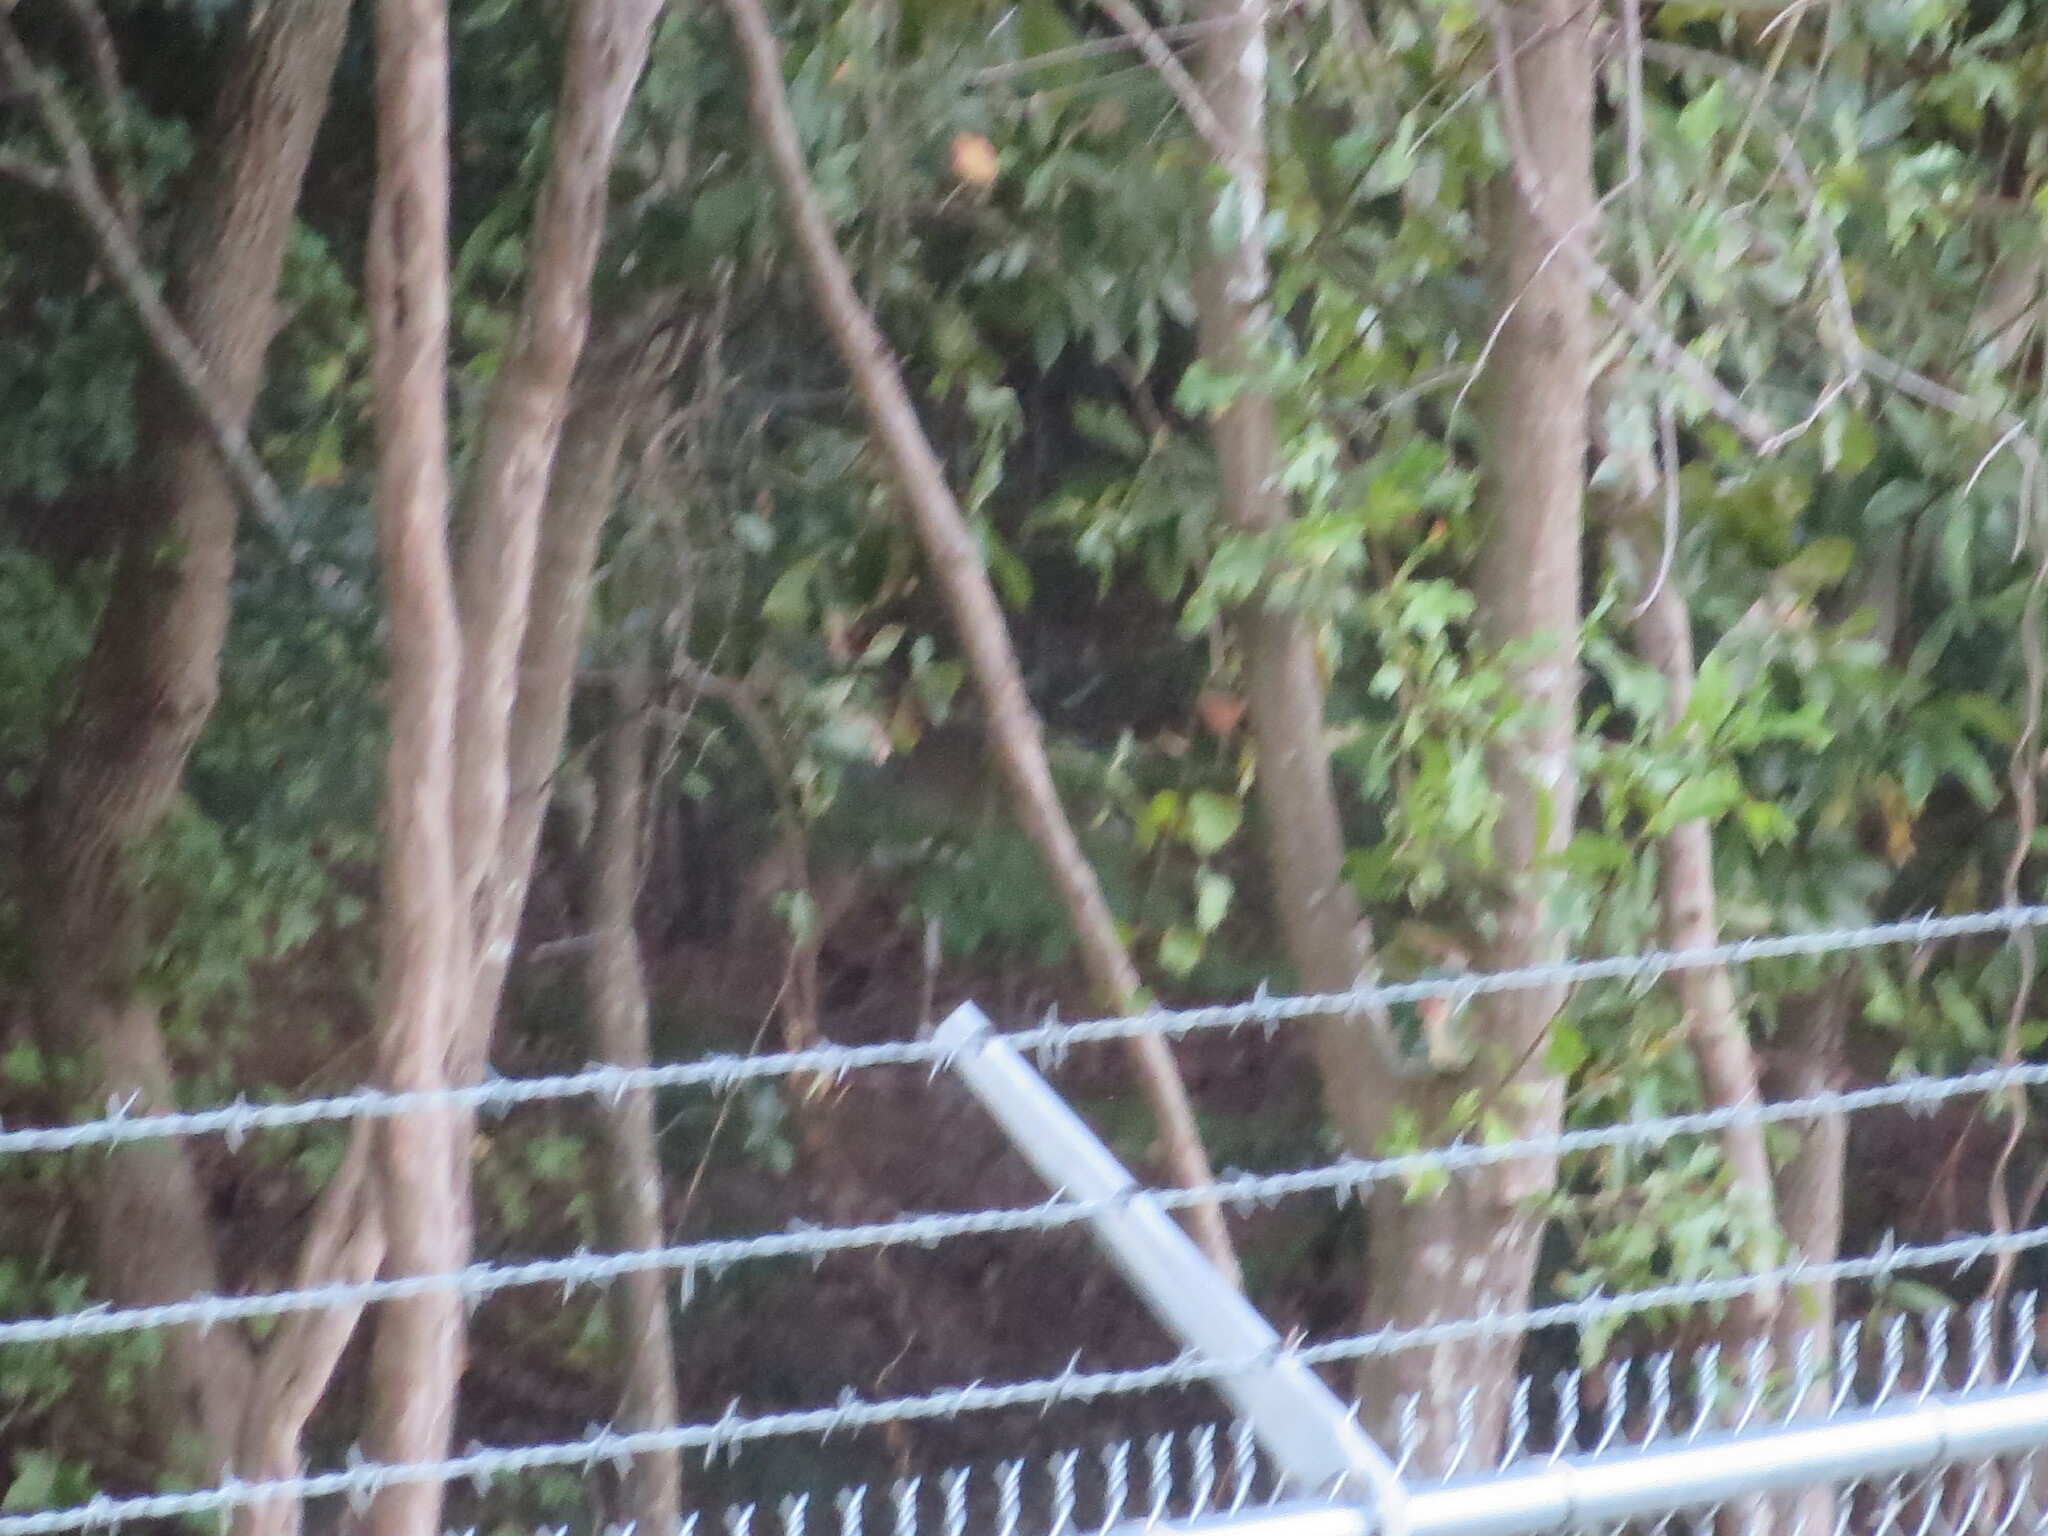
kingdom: Animalia
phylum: Chordata
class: Mammalia
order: Artiodactyla
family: Cervidae
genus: Odocoileus
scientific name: Odocoileus virginianus
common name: White-tailed deer
